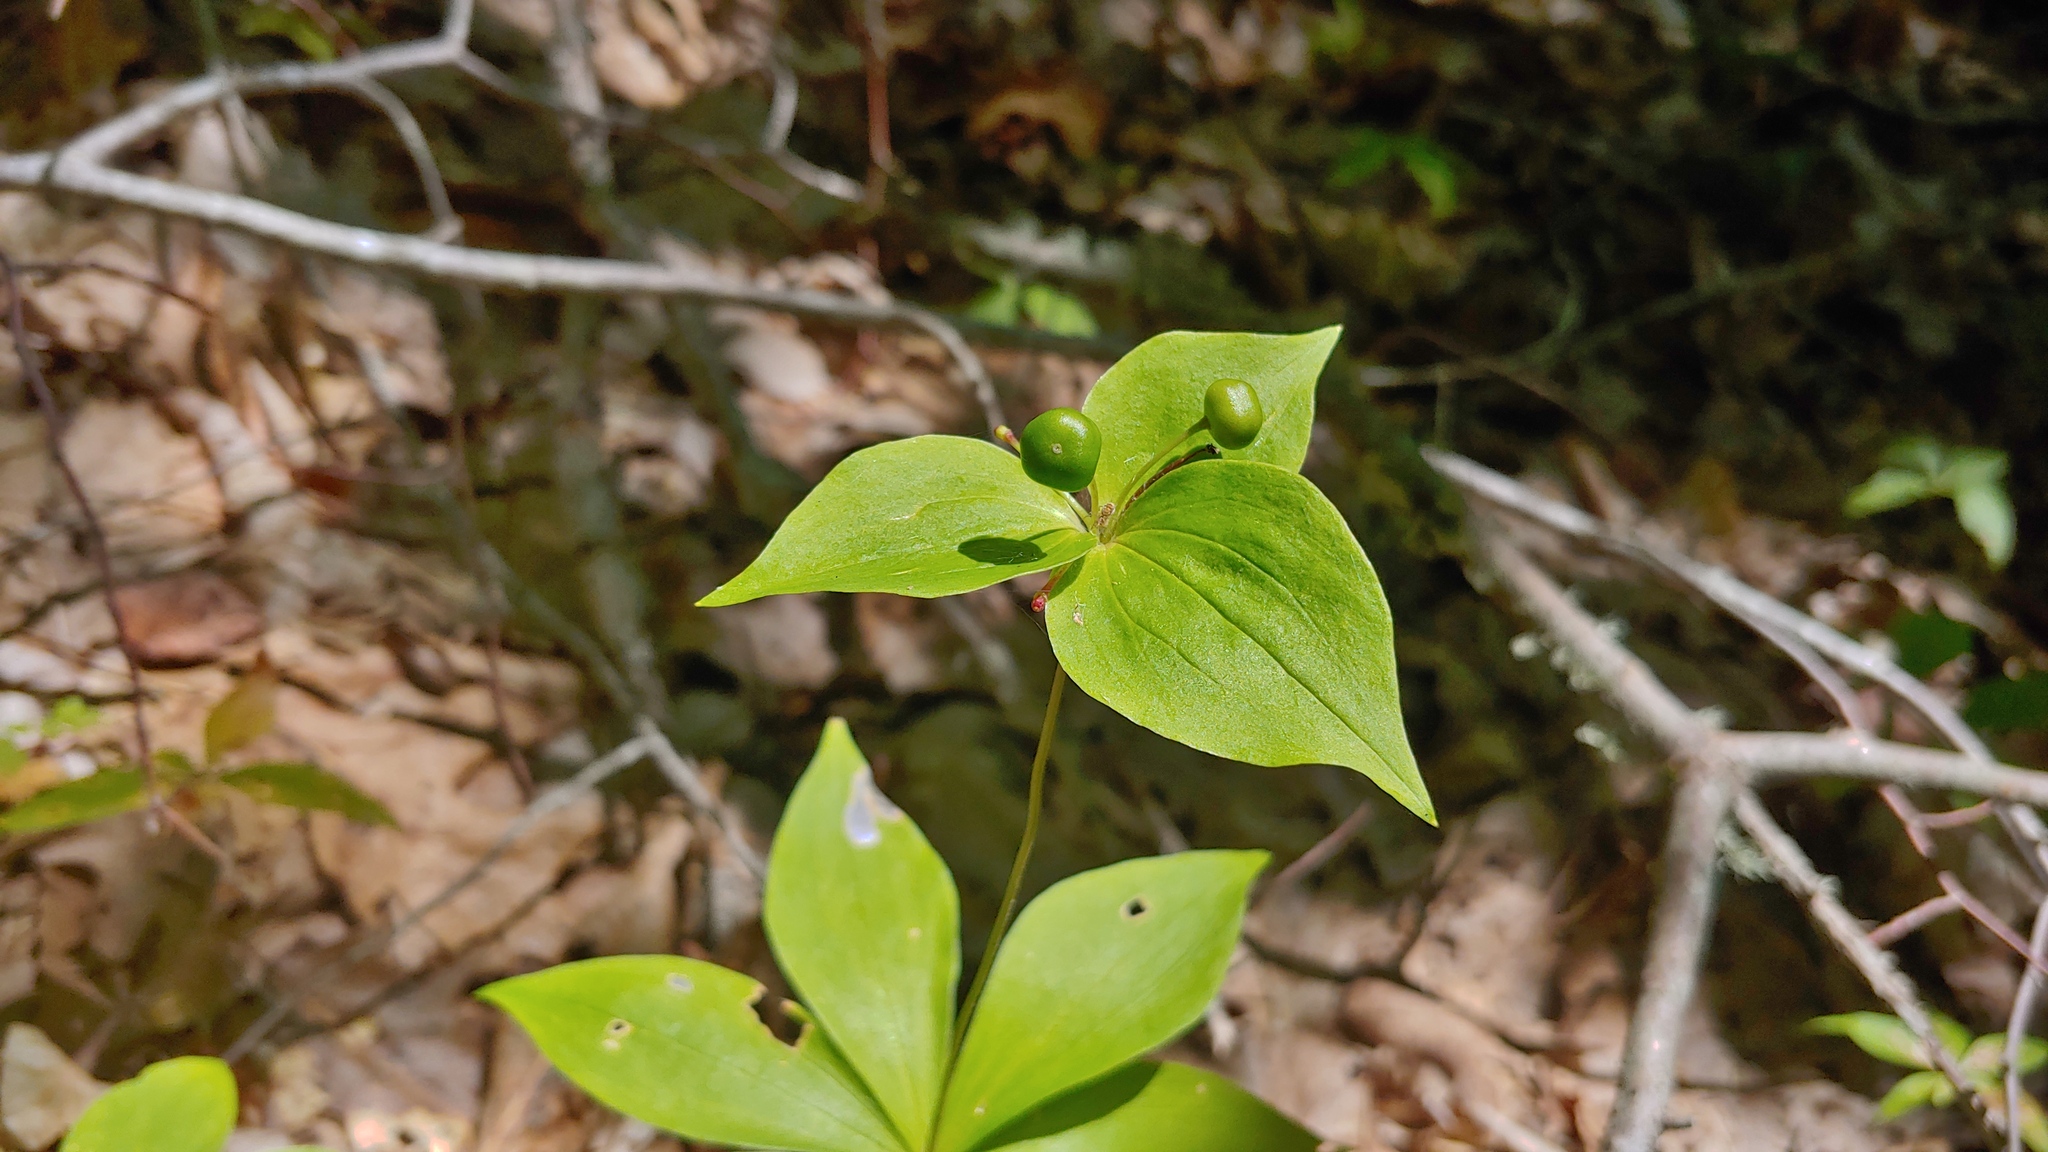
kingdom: Plantae
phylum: Tracheophyta
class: Liliopsida
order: Liliales
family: Liliaceae
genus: Medeola
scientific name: Medeola virginiana
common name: Indian cucumber-root
